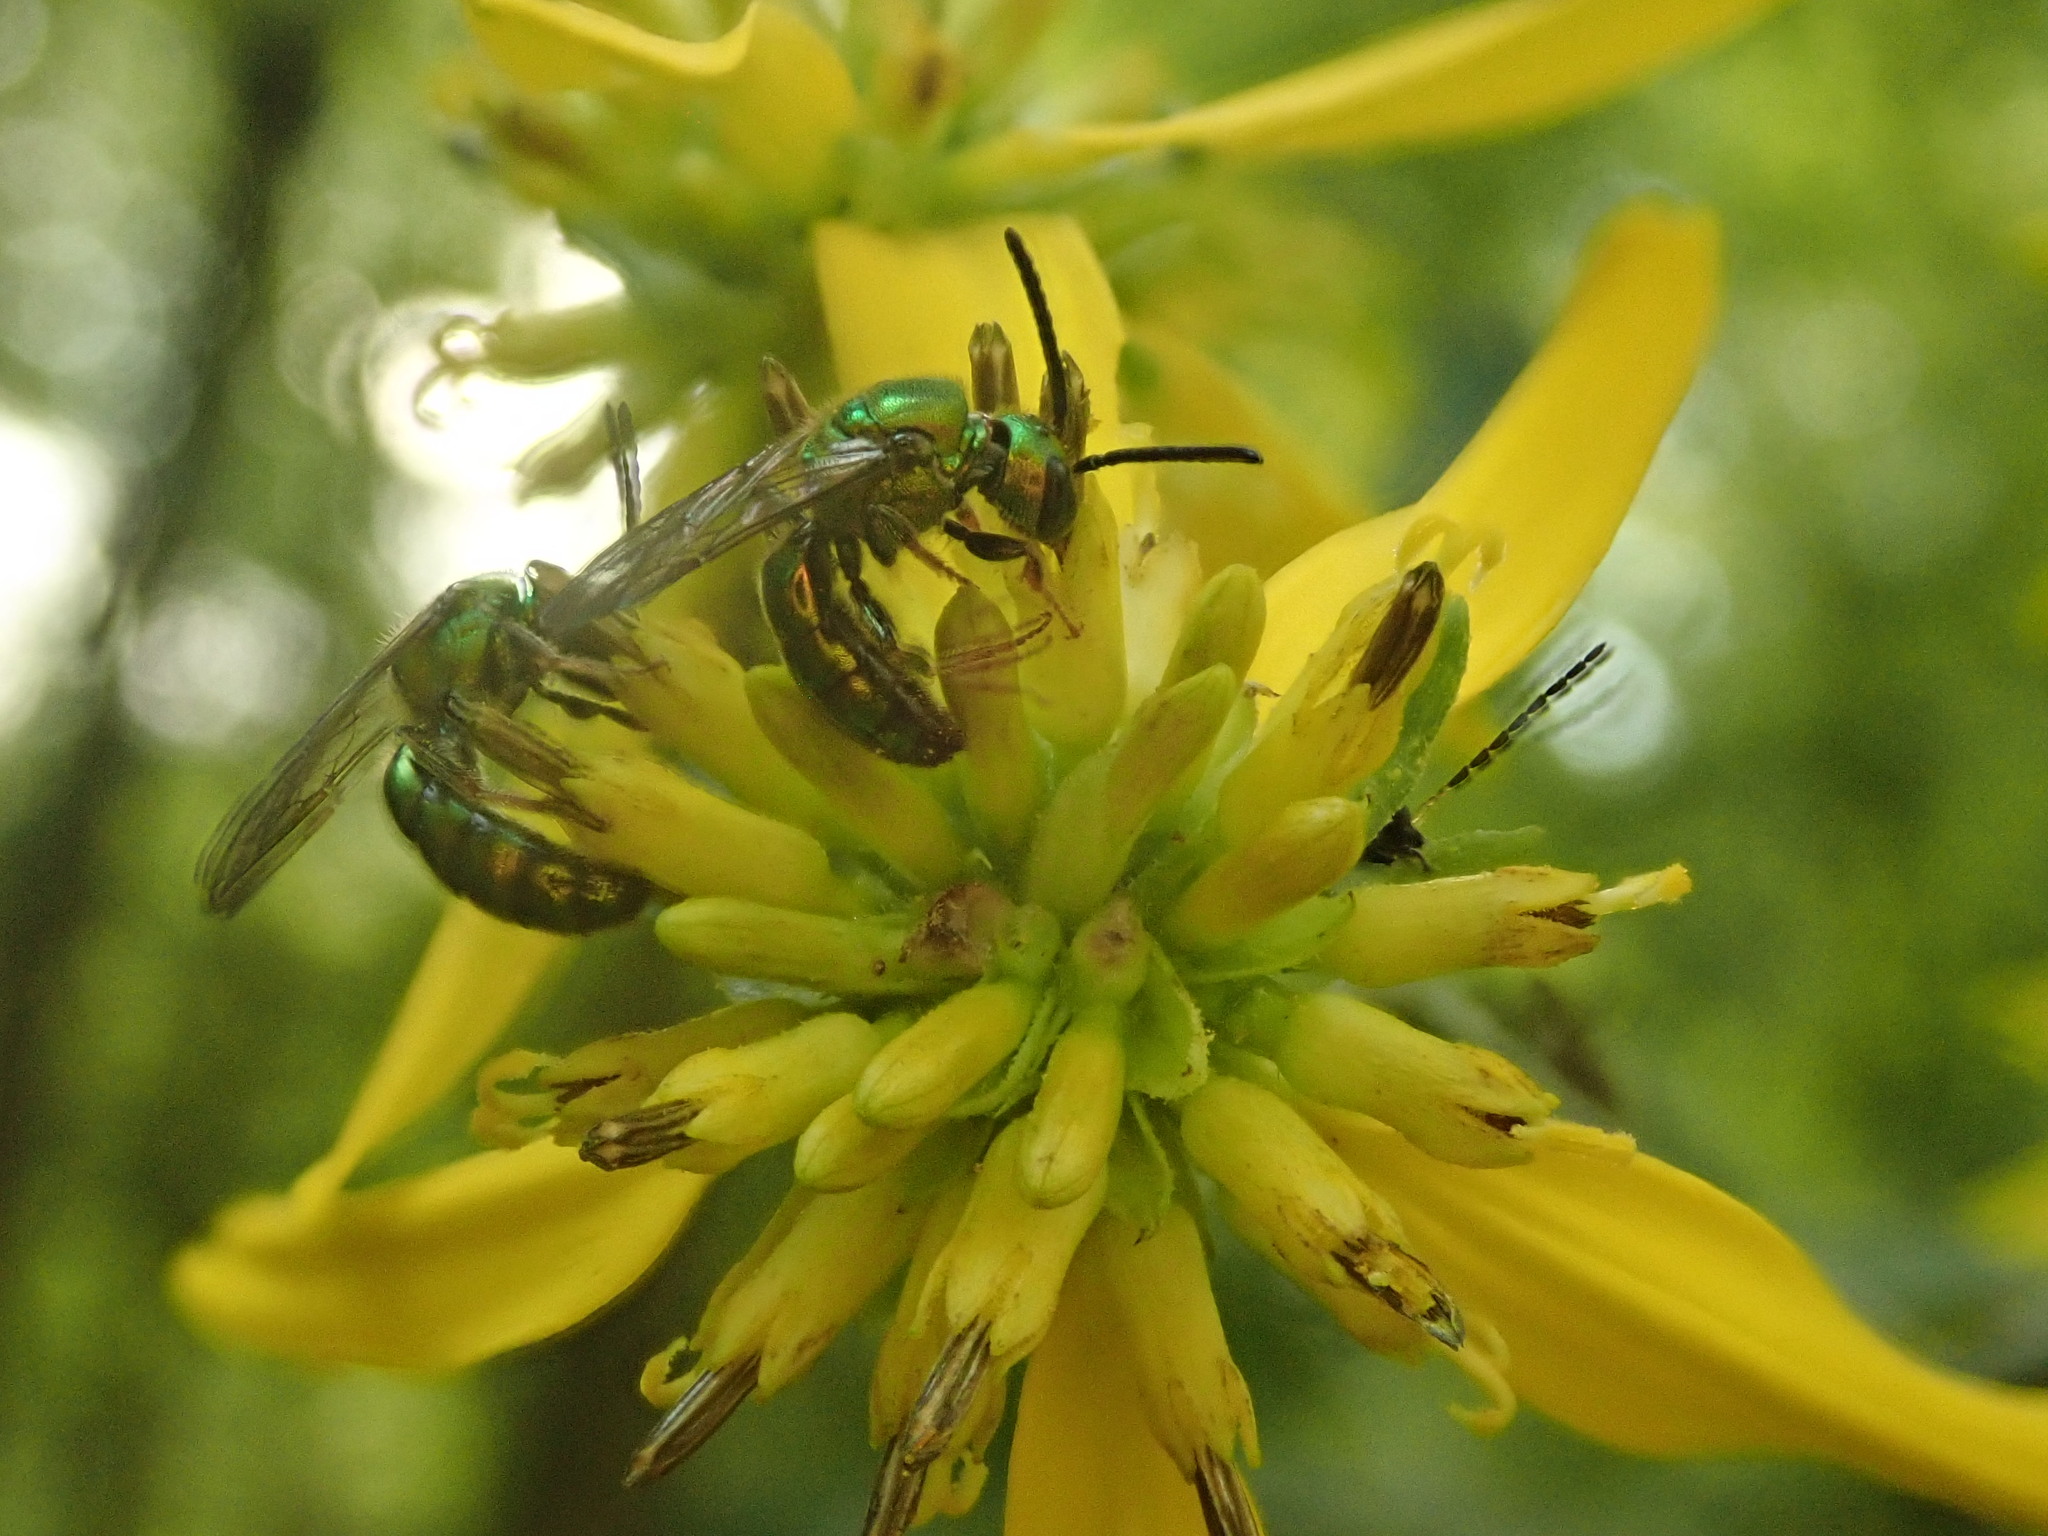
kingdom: Animalia
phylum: Arthropoda
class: Insecta
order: Hymenoptera
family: Halictidae
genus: Augochlora
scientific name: Augochlora pura
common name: Pure green sweat bee
